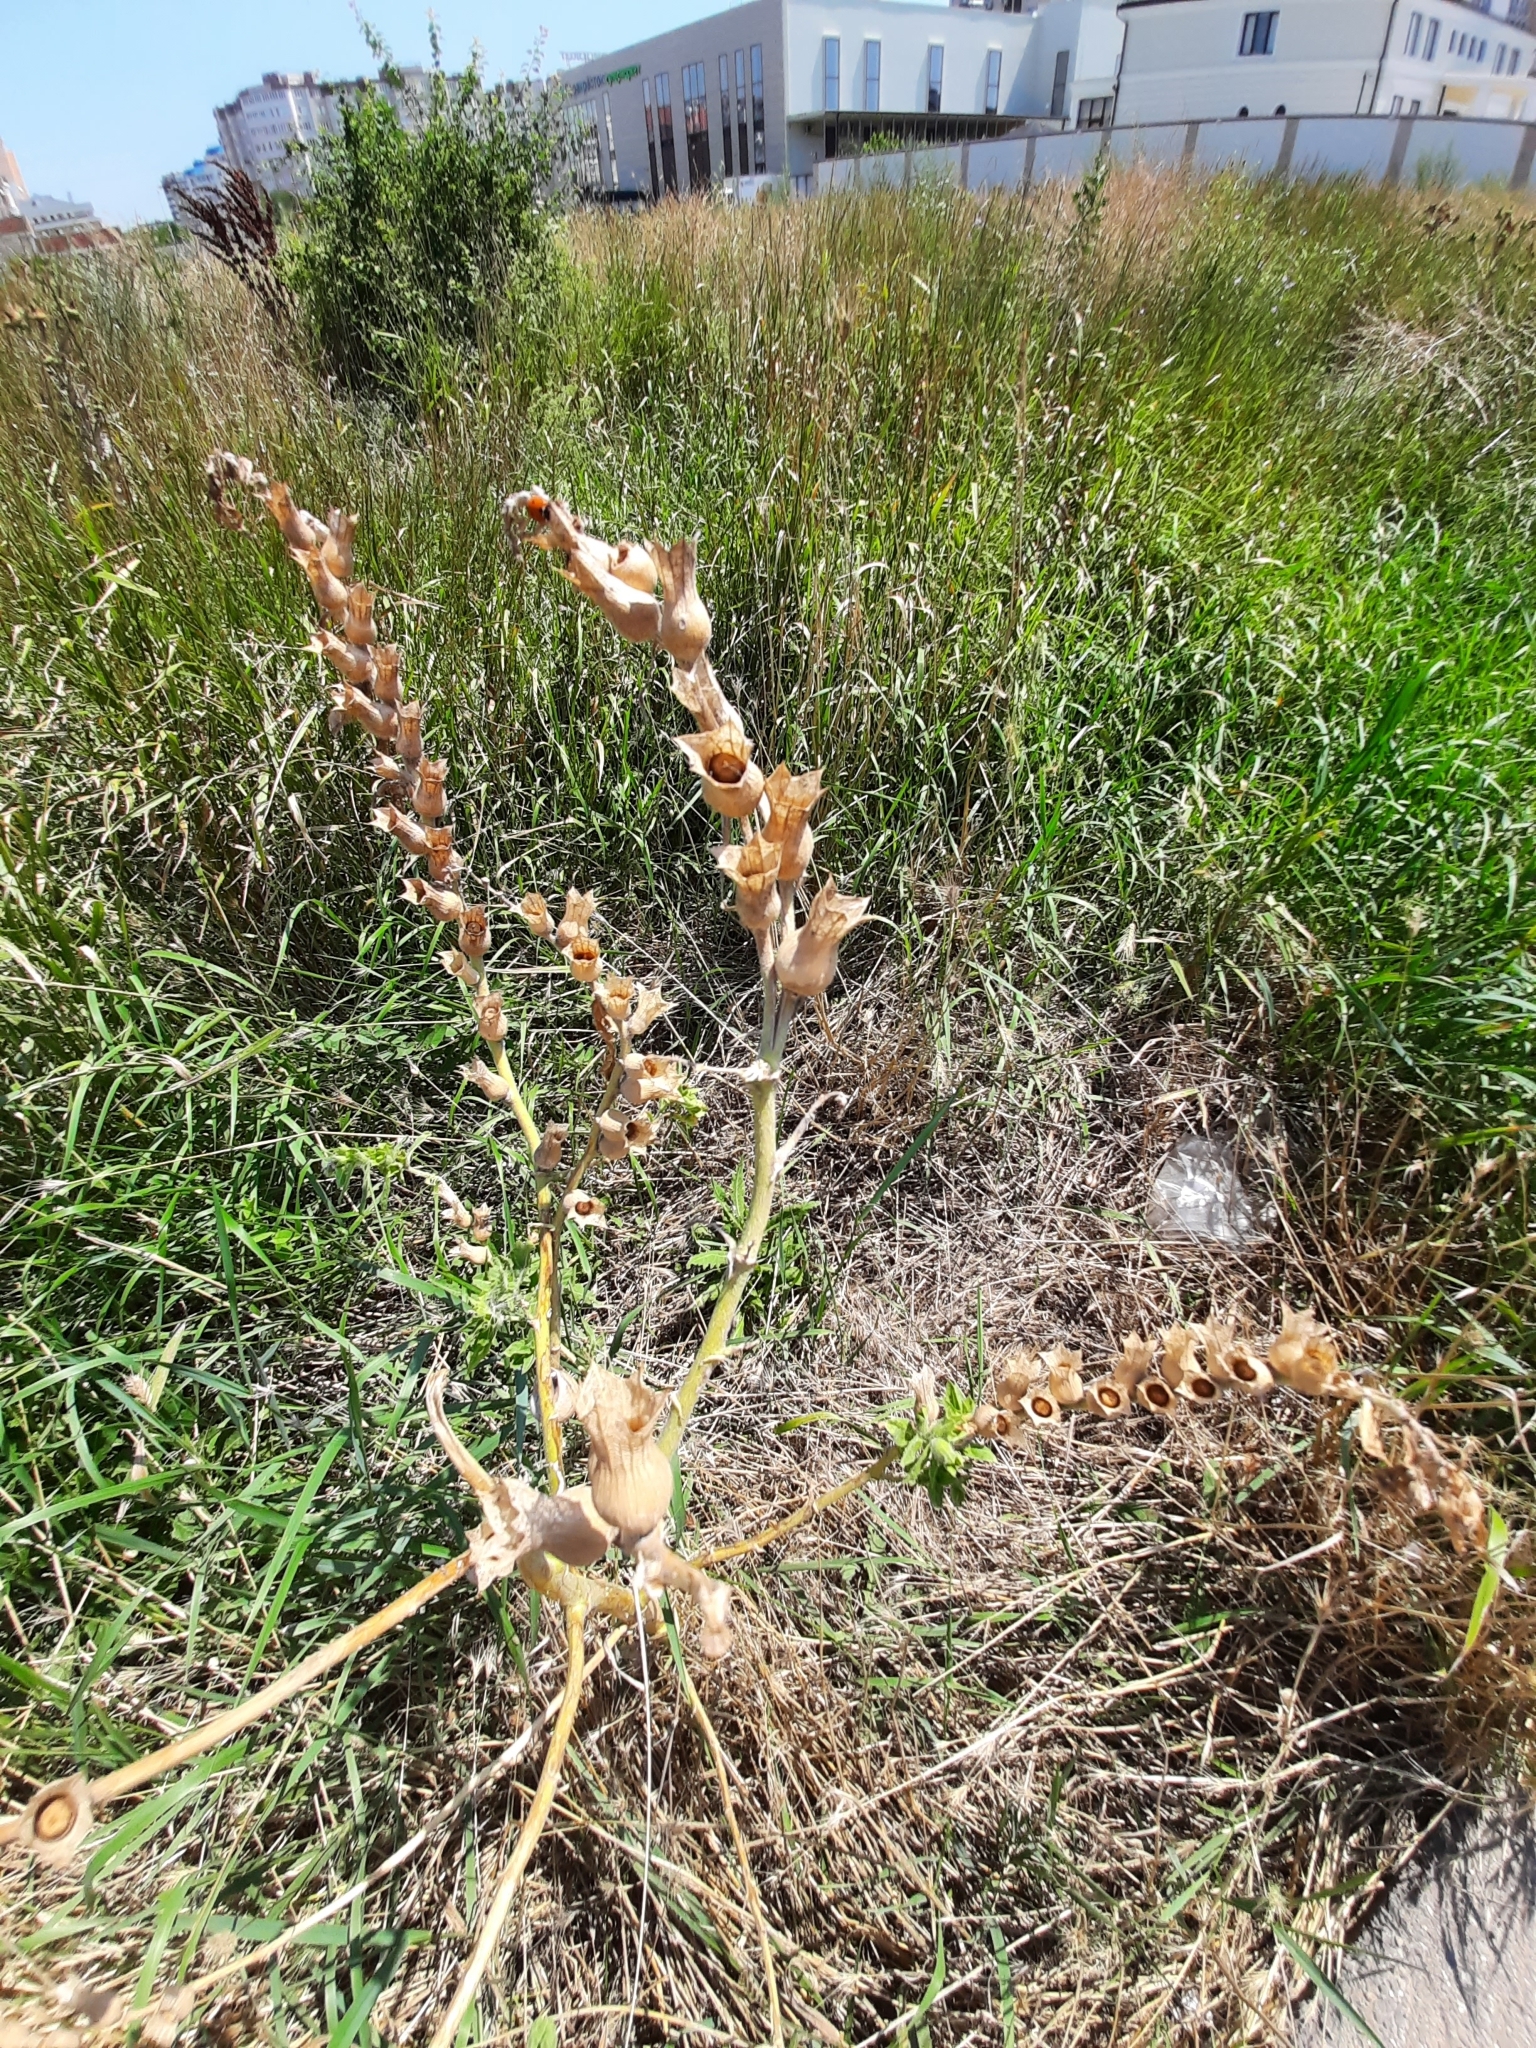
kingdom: Plantae
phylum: Tracheophyta
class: Magnoliopsida
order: Solanales
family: Solanaceae
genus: Hyoscyamus
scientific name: Hyoscyamus niger
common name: Henbane
